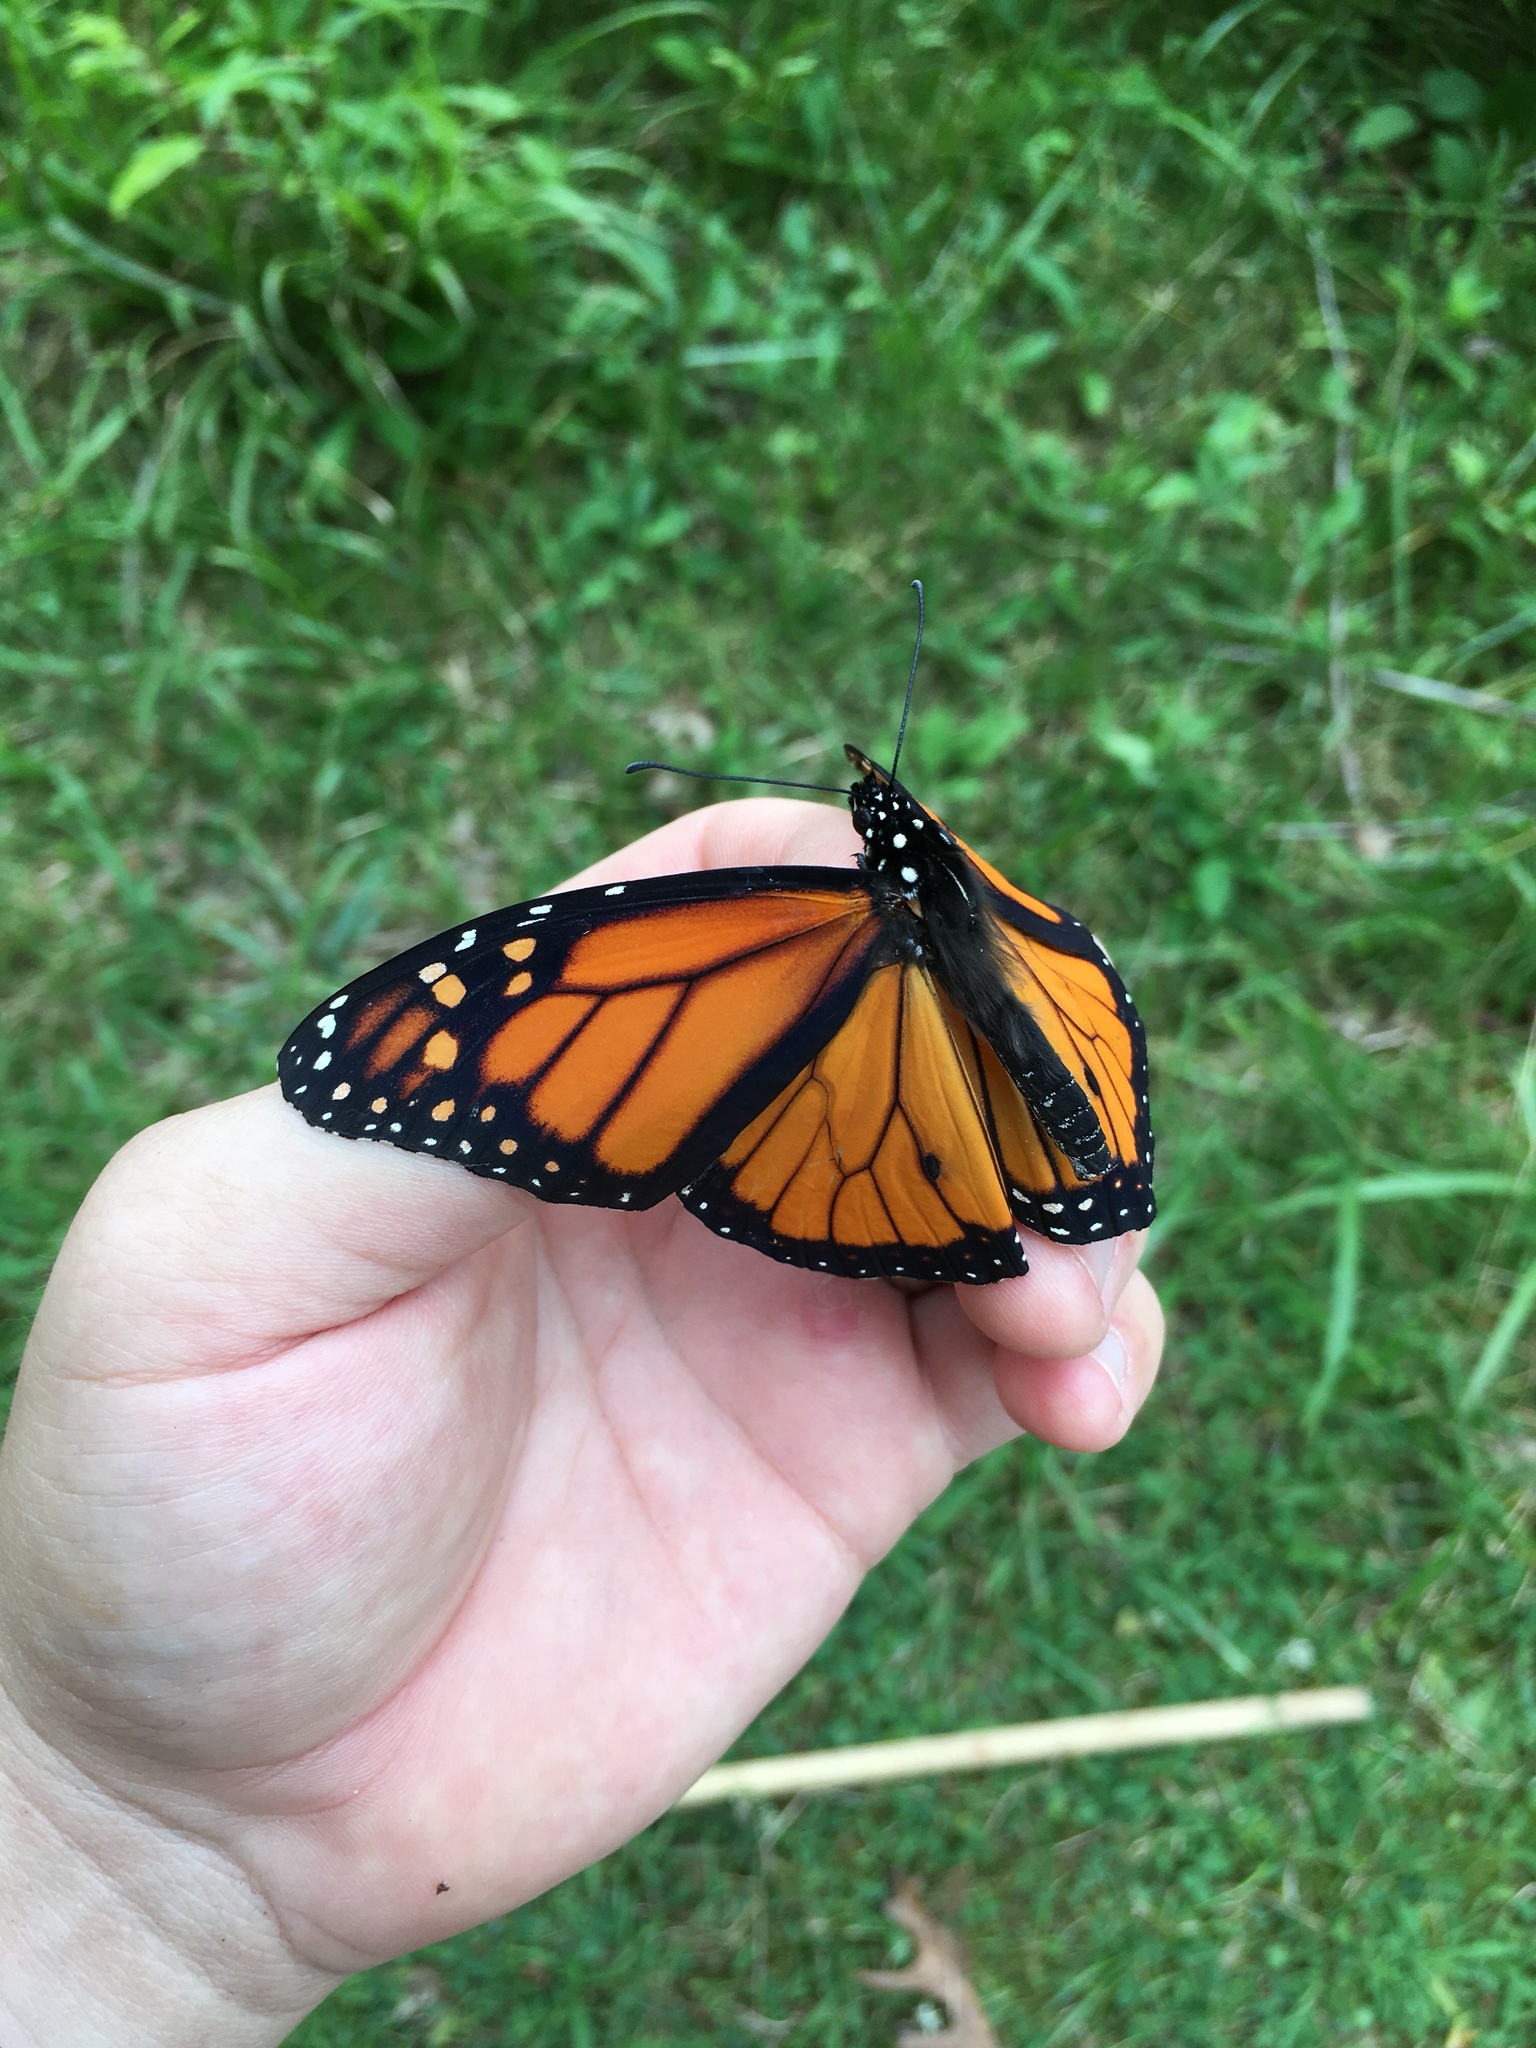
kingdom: Animalia
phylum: Arthropoda
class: Insecta
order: Lepidoptera
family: Nymphalidae
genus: Danaus
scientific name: Danaus plexippus
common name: Monarch
